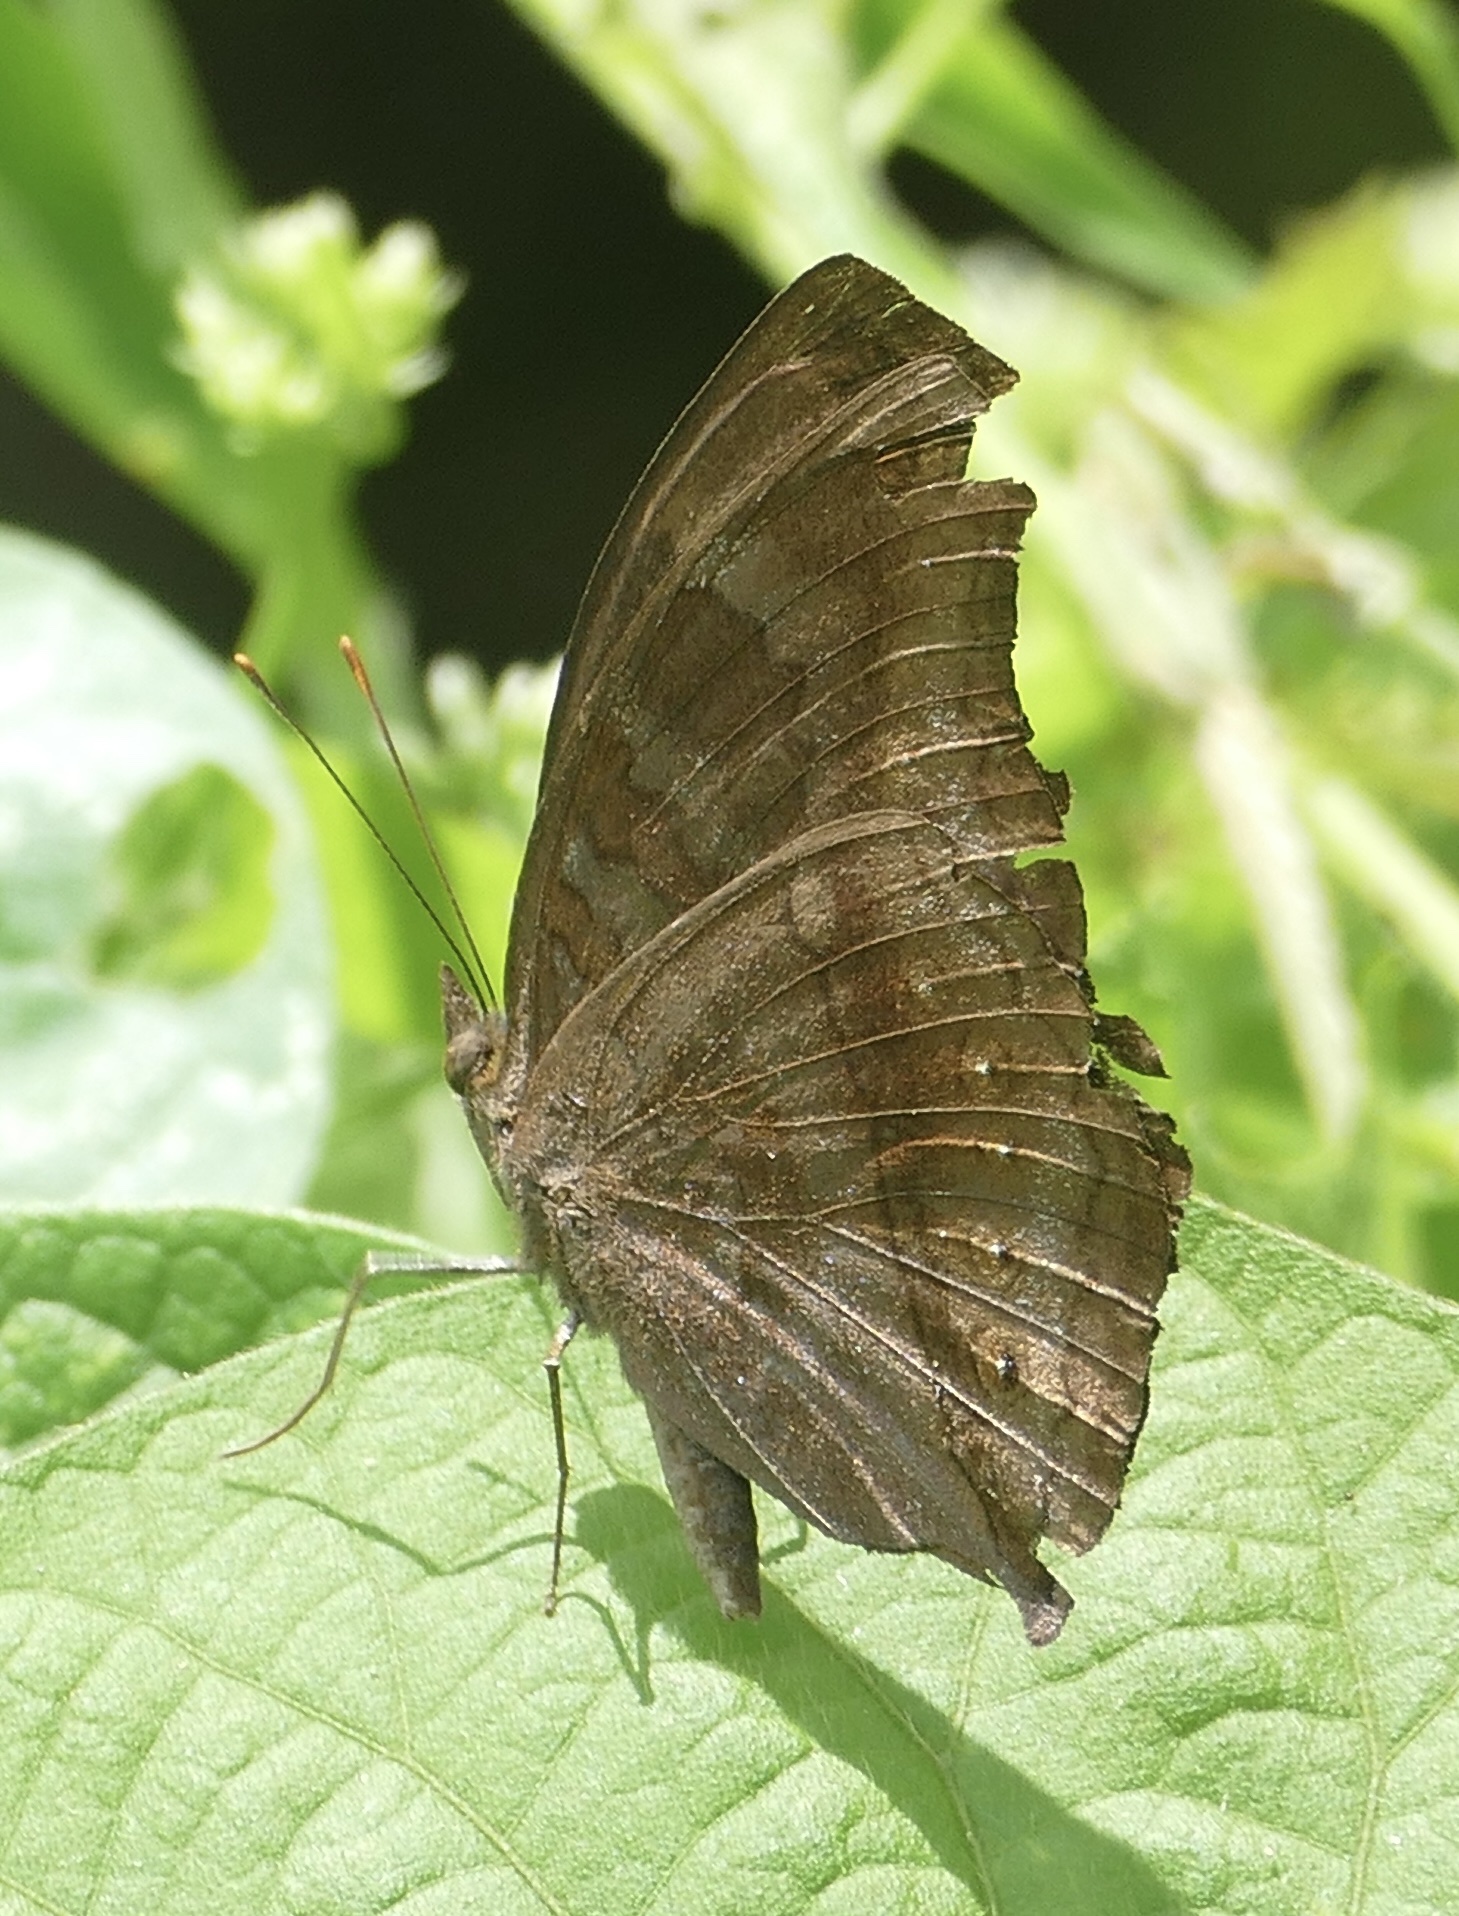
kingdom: Animalia
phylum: Arthropoda
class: Insecta
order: Lepidoptera
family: Nymphalidae
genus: Junonia
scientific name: Junonia
